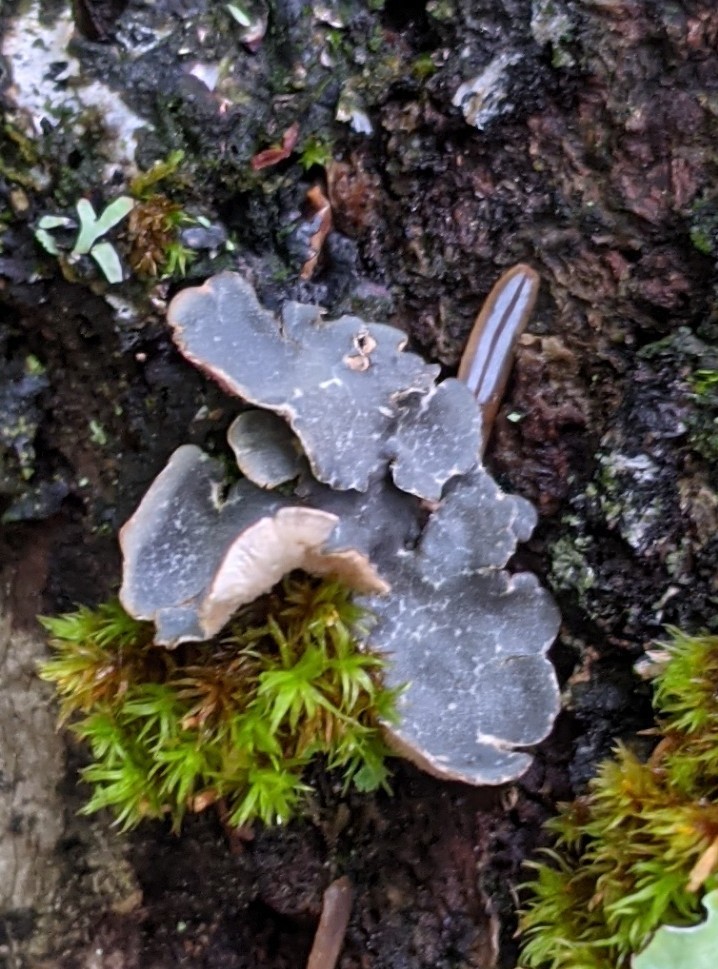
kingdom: Fungi
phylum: Ascomycota
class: Lecanoromycetes
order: Peltigerales
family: Lobariaceae
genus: Lobarina
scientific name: Lobarina scrobiculata
